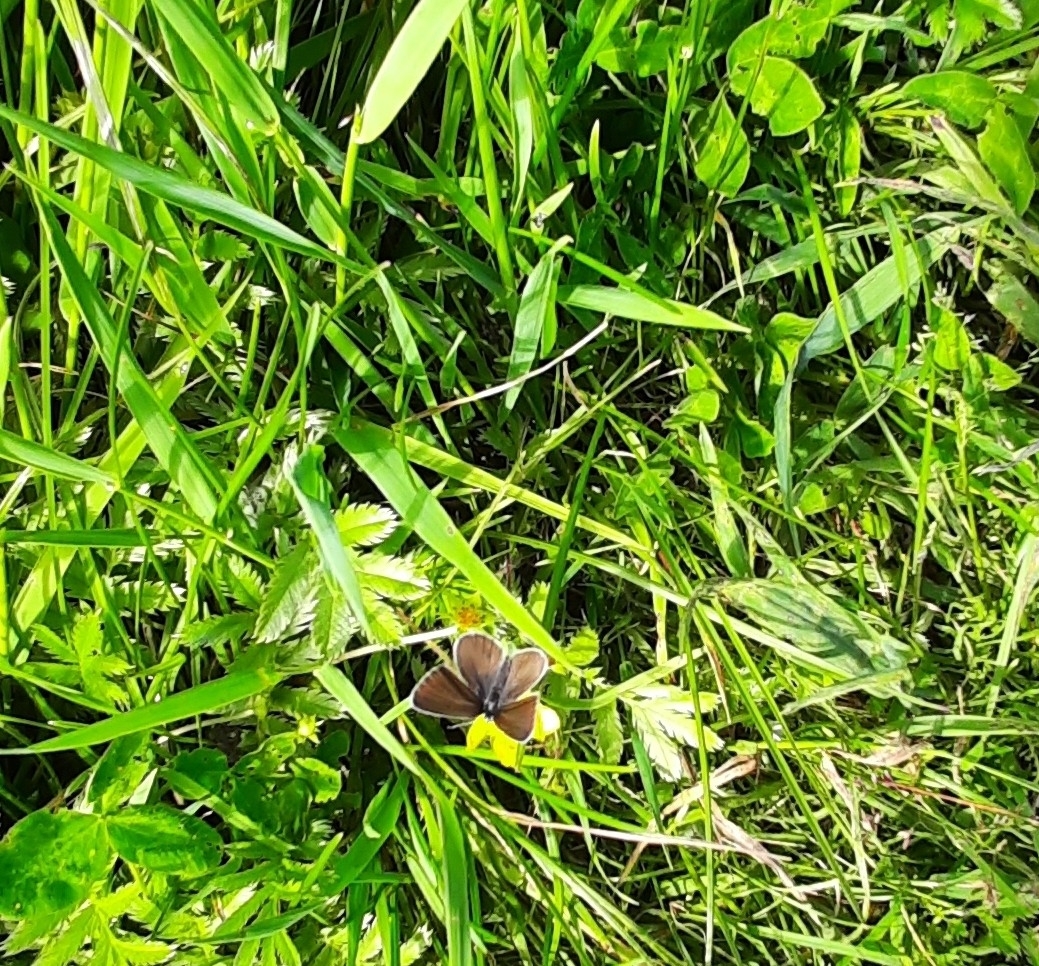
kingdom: Animalia
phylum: Arthropoda
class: Insecta
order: Lepidoptera
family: Lycaenidae
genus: Cyaniris
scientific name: Cyaniris semiargus
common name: Mazarine blue
